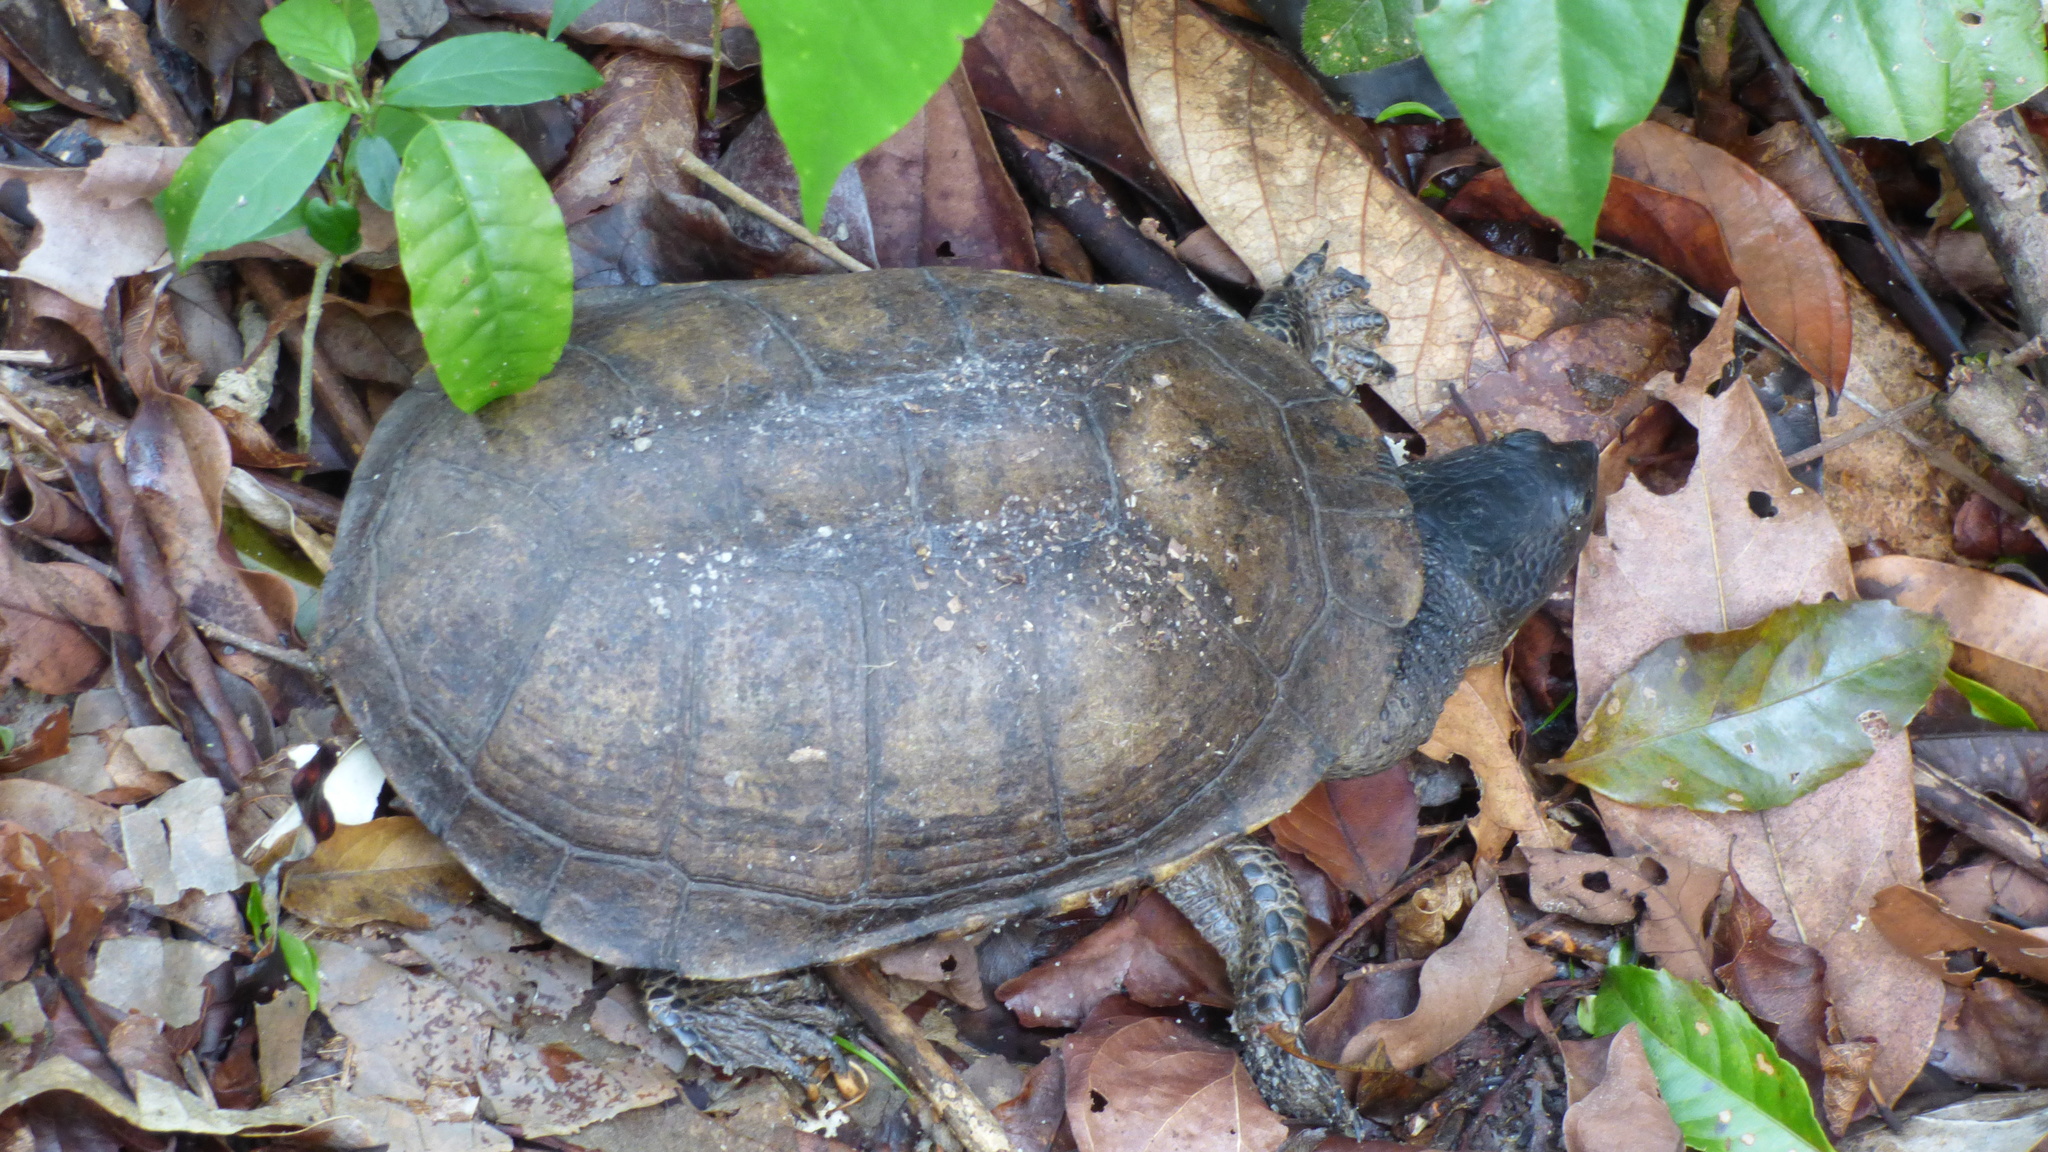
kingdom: Animalia
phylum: Chordata
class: Testudines
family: Chelidae
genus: Acanthochelys
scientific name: Acanthochelys radiolata
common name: Brazilian radiolated swamp turtle
